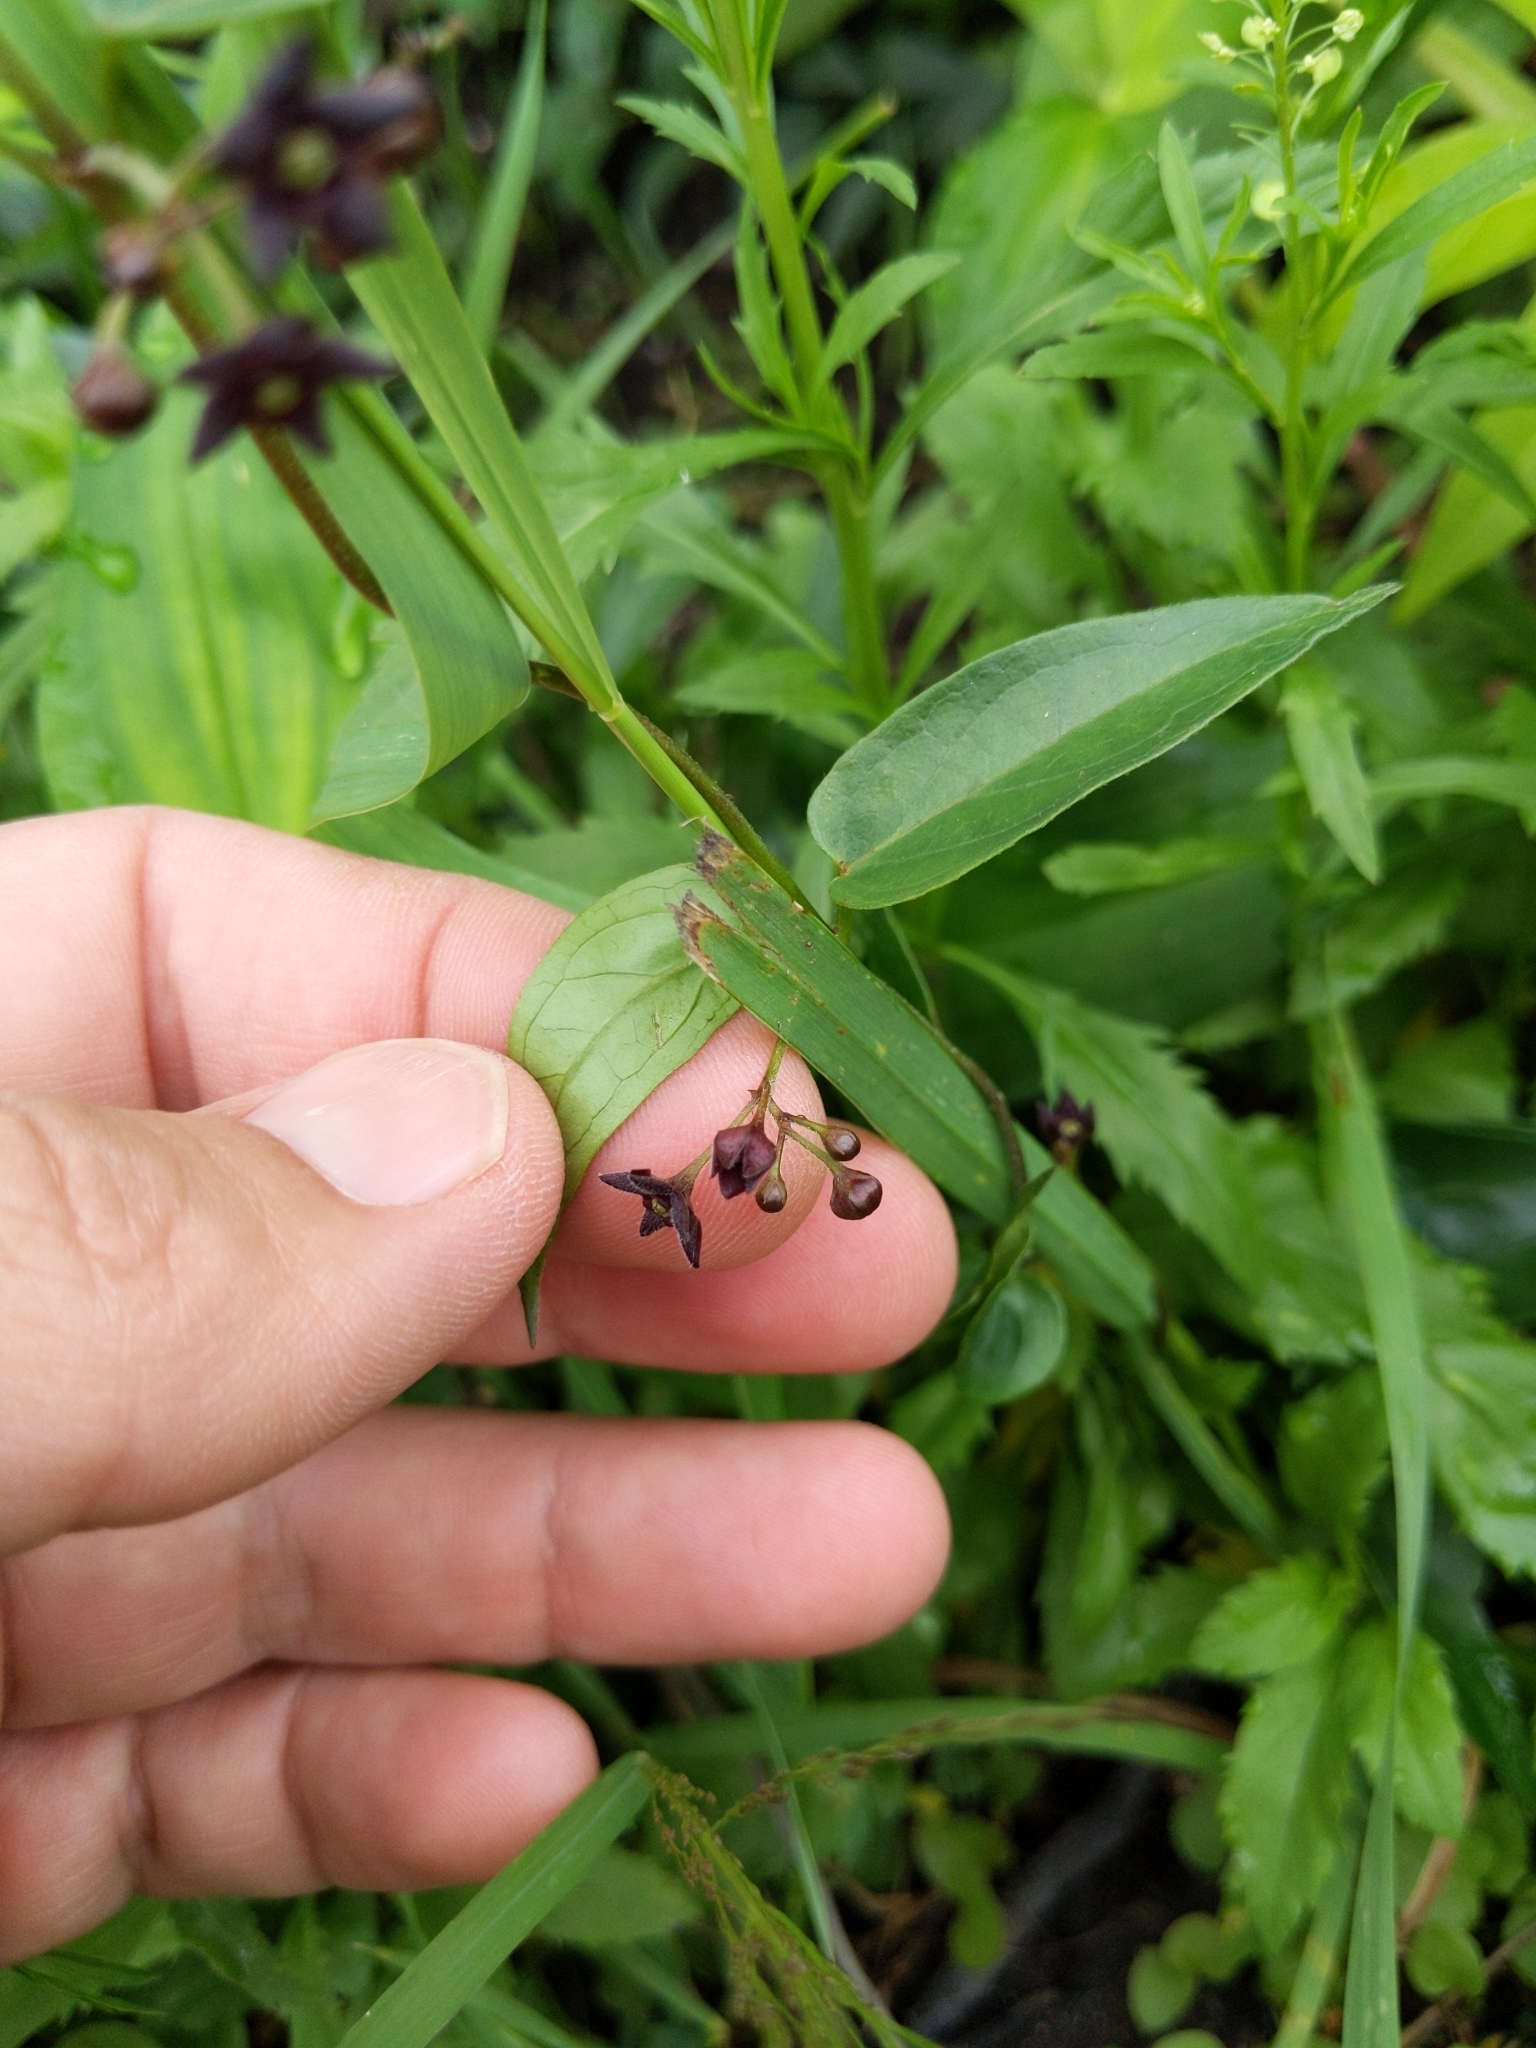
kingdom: Plantae
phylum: Tracheophyta
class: Magnoliopsida
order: Gentianales
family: Apocynaceae
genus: Vincetoxicum
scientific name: Vincetoxicum nigrum
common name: Black swallow-wort
